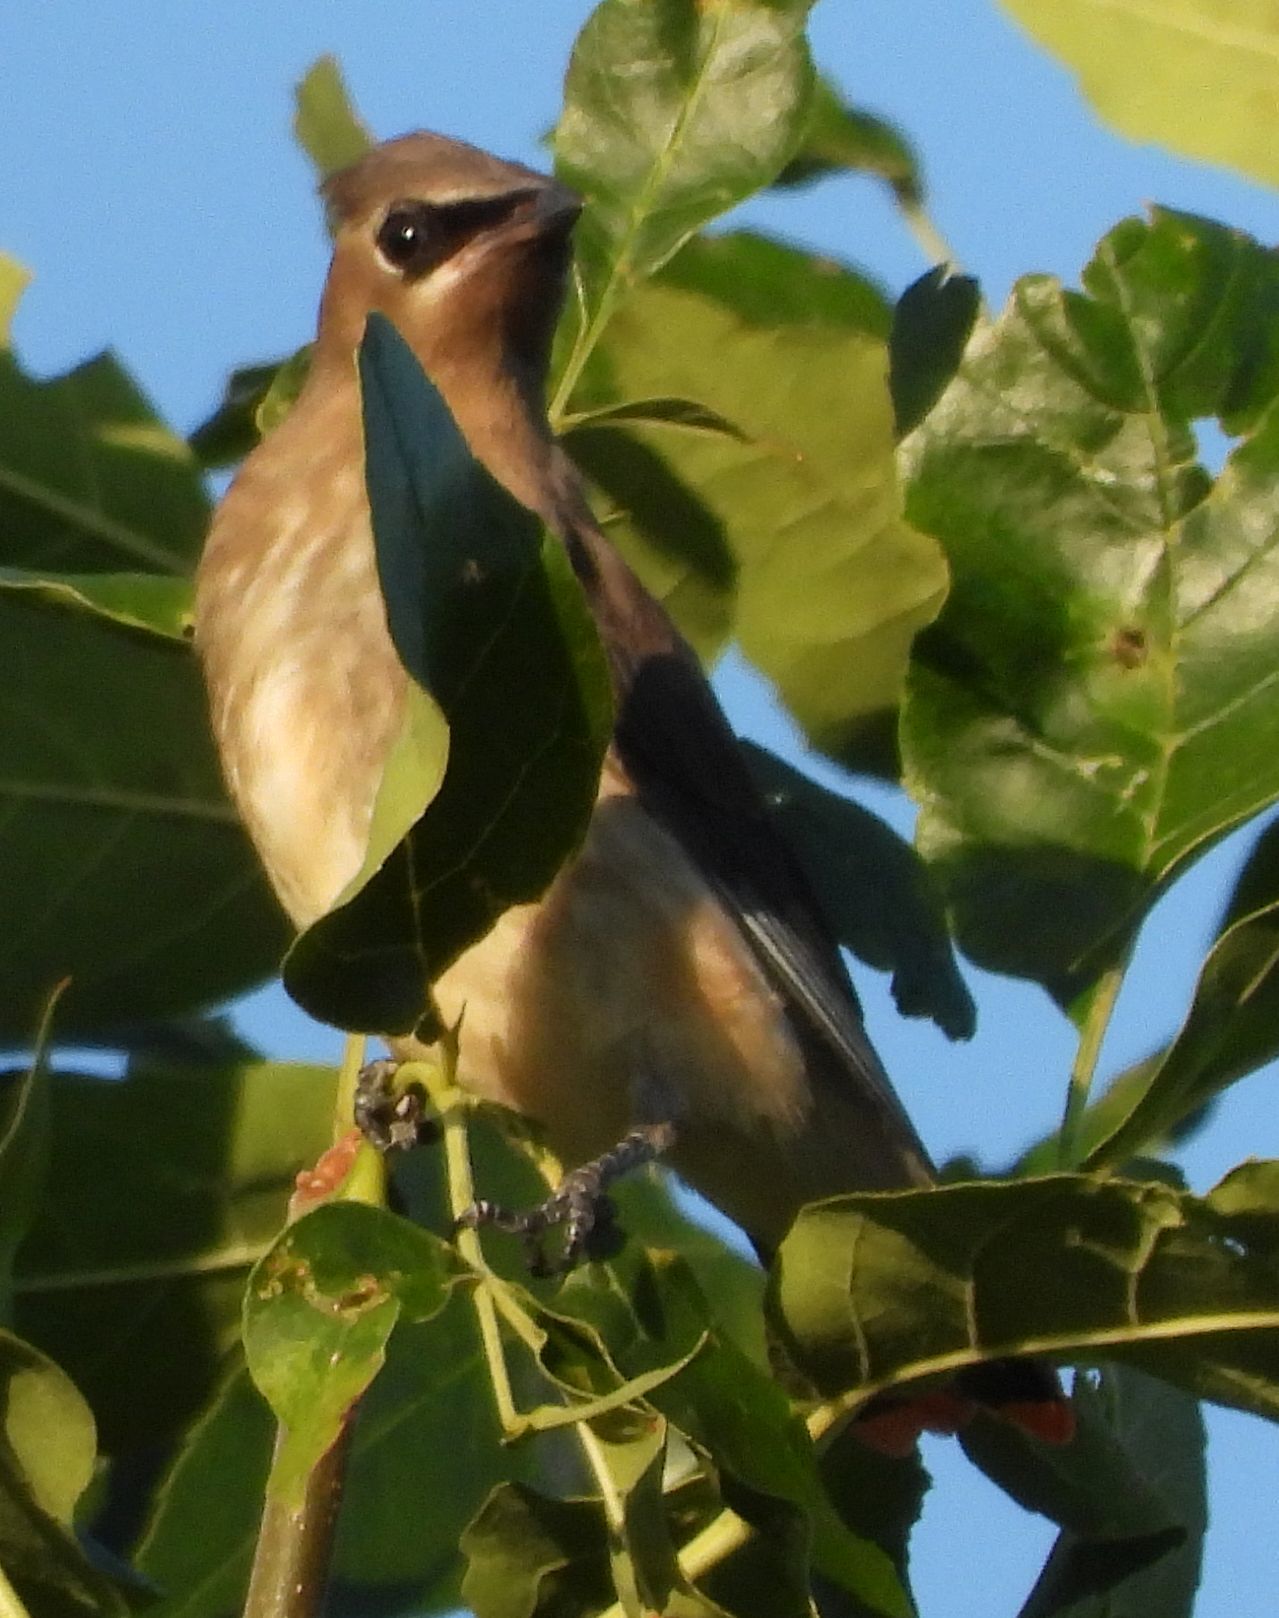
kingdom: Animalia
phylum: Chordata
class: Aves
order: Passeriformes
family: Bombycillidae
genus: Bombycilla
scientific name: Bombycilla cedrorum
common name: Cedar waxwing
